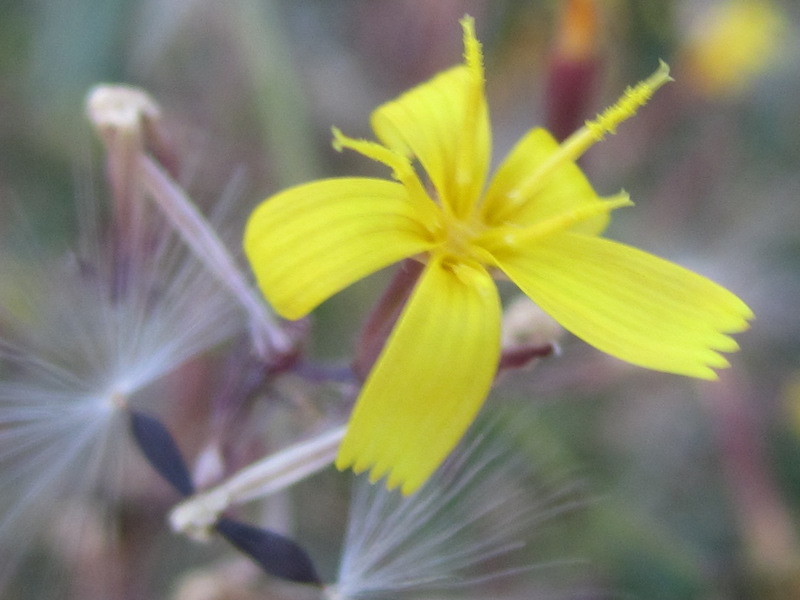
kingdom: Plantae
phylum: Tracheophyta
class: Magnoliopsida
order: Asterales
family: Asteraceae
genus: Mycelis
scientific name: Mycelis muralis
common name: Wall lettuce
